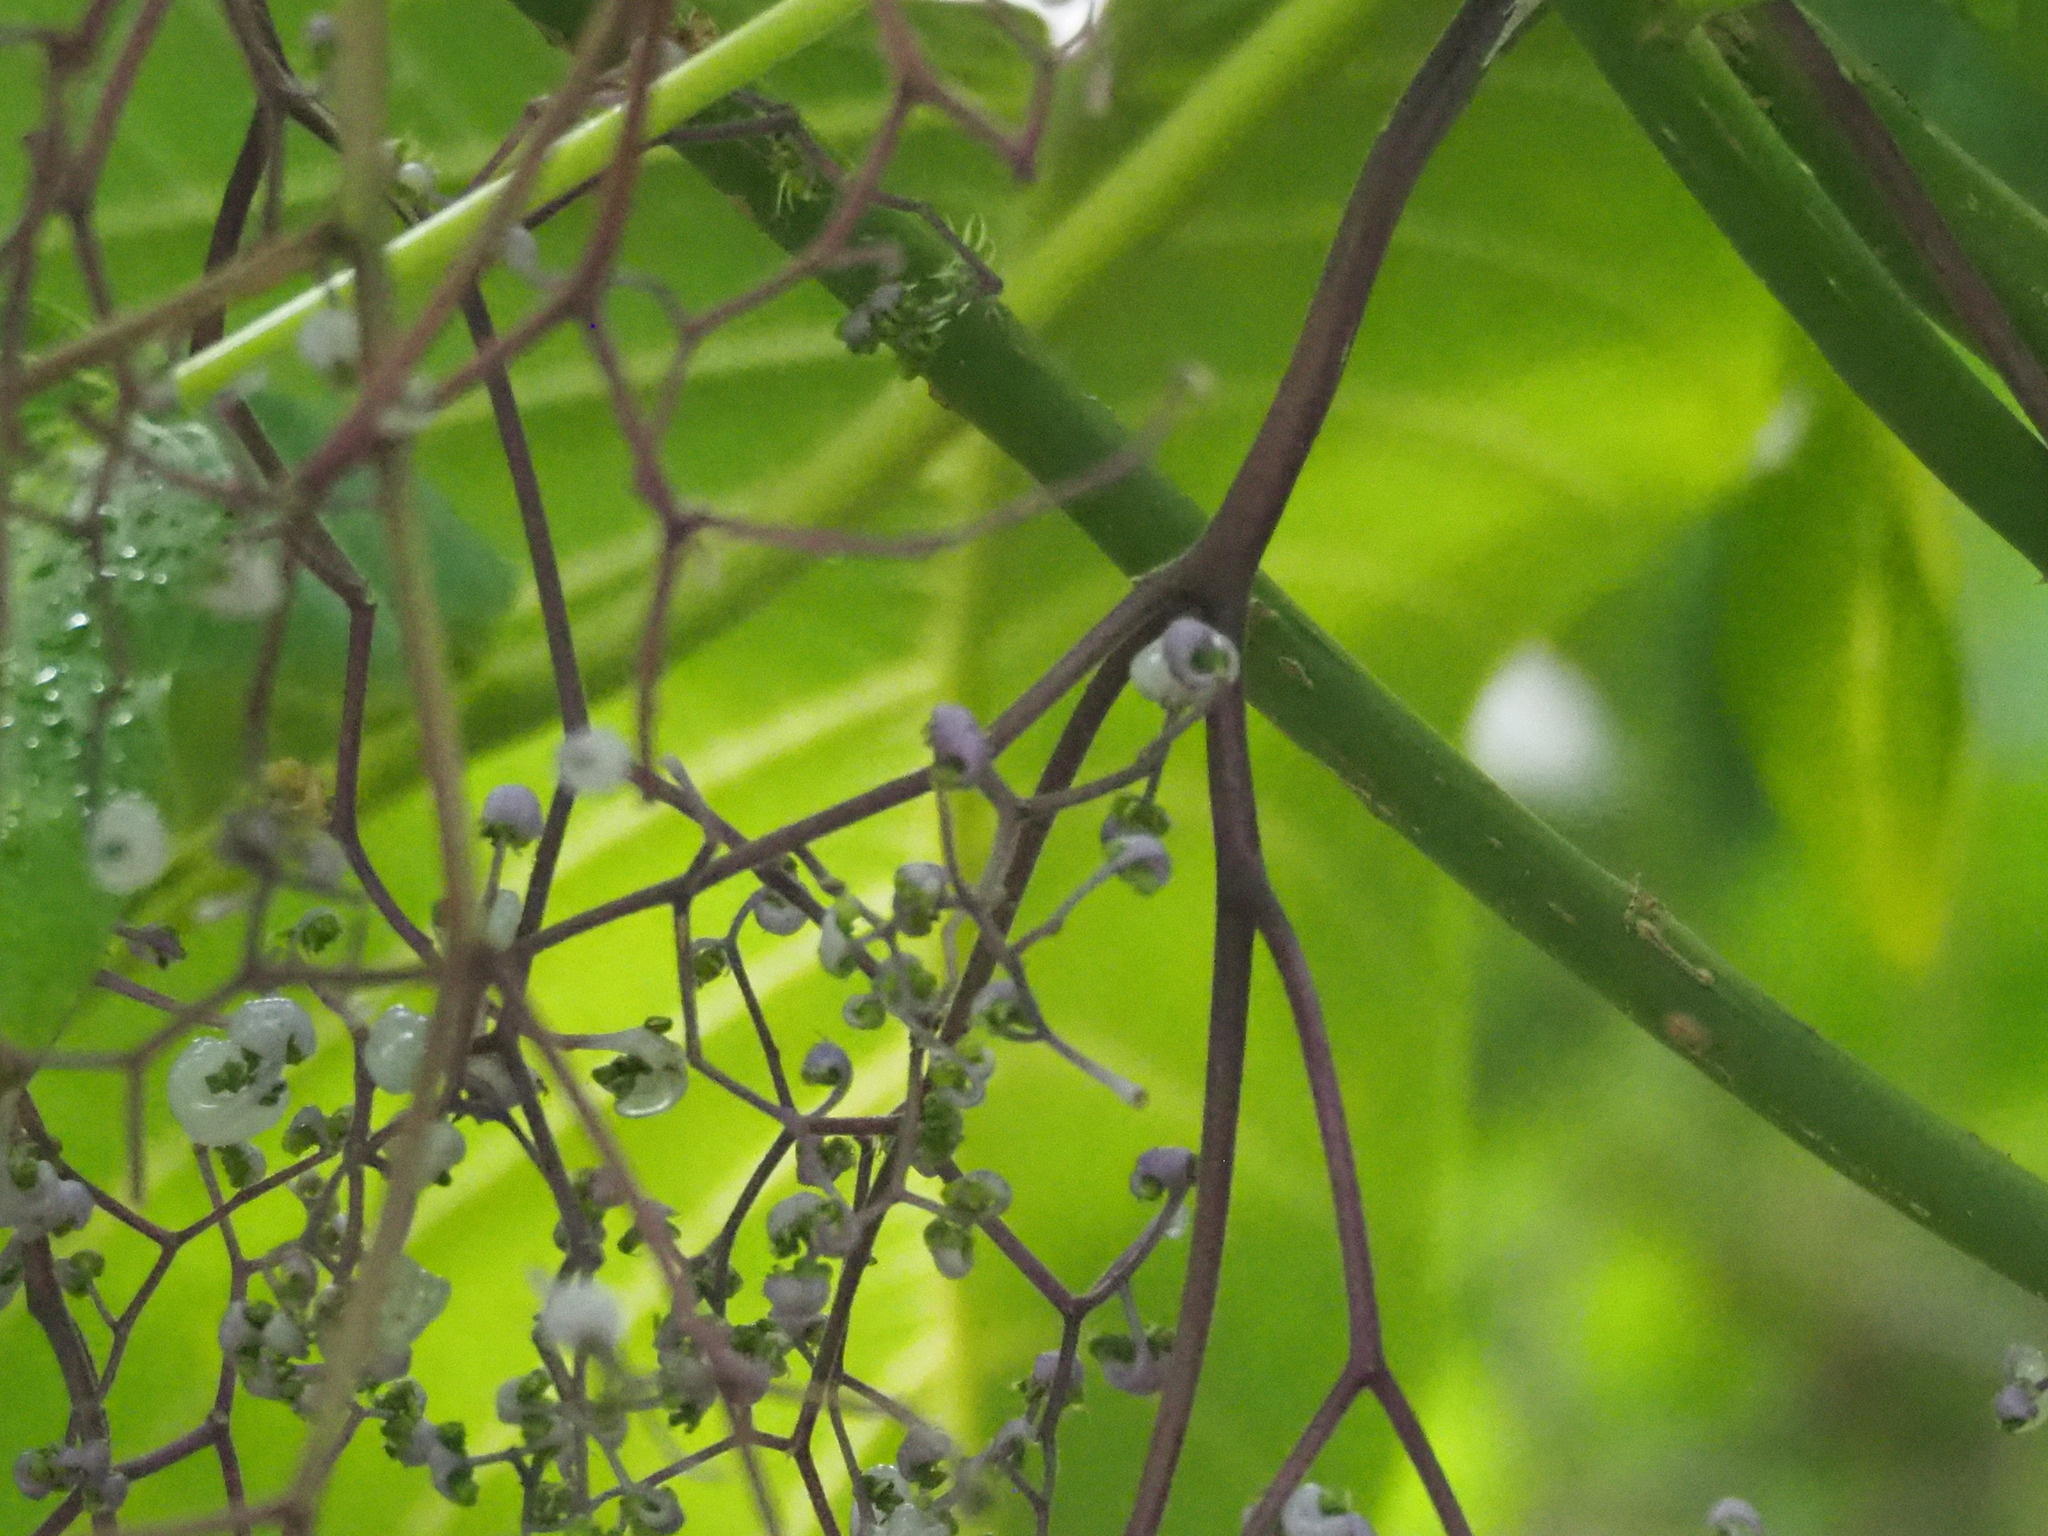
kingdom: Plantae
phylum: Tracheophyta
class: Magnoliopsida
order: Rosales
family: Urticaceae
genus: Dendrocnide
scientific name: Dendrocnide meyeniana
